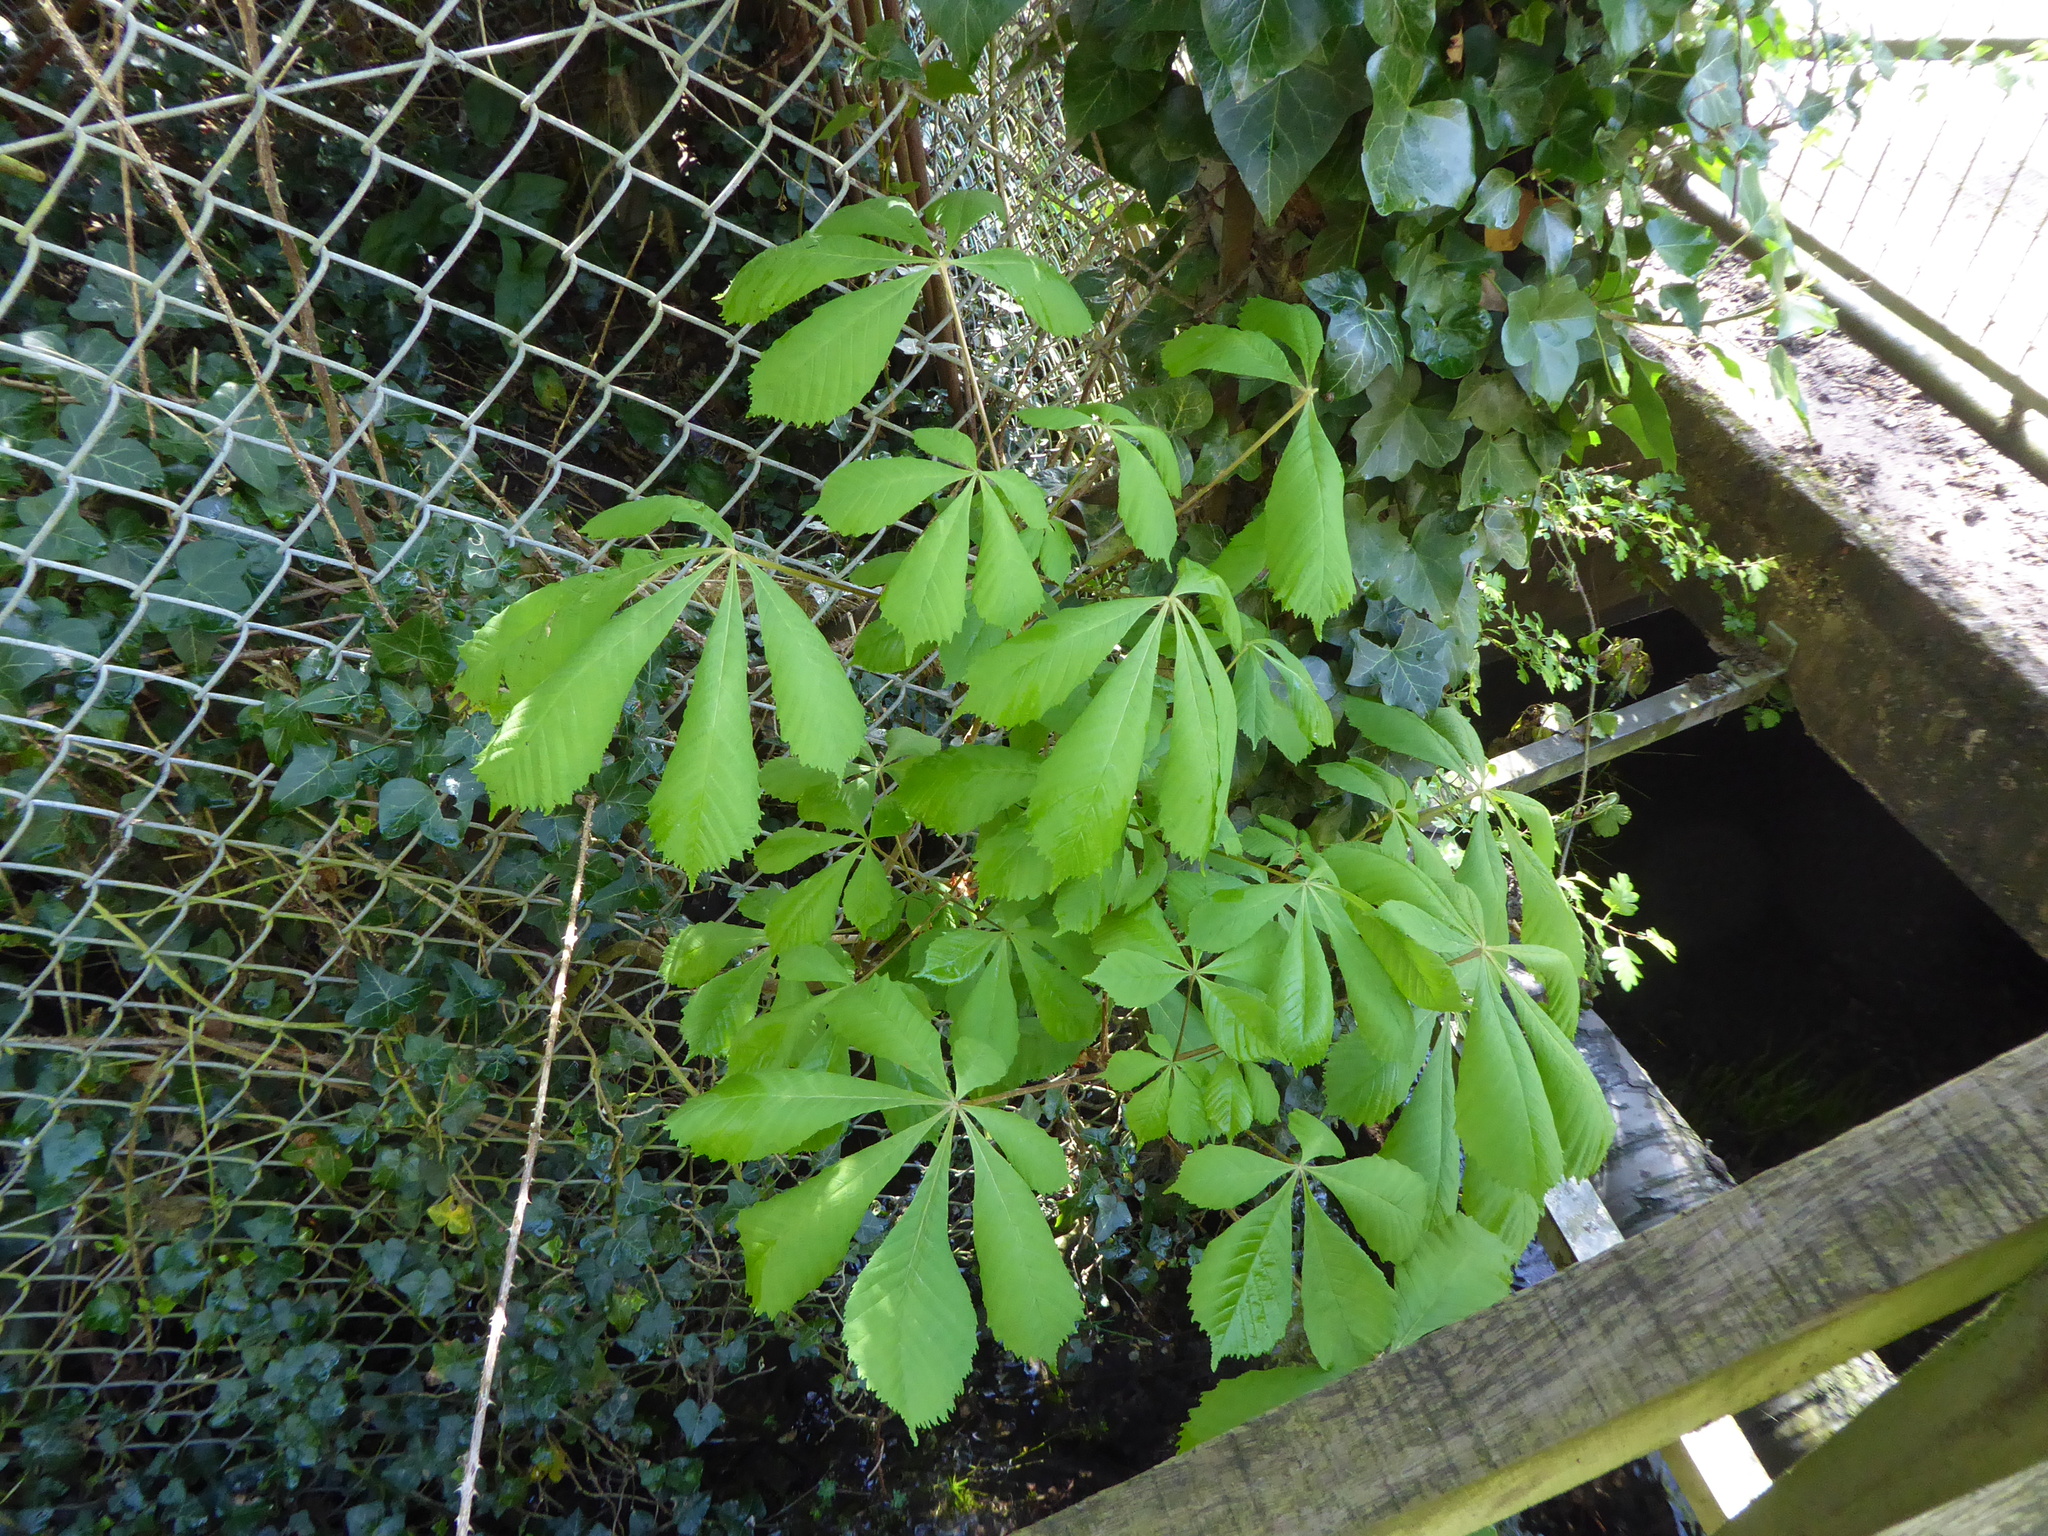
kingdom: Plantae
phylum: Tracheophyta
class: Magnoliopsida
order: Sapindales
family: Sapindaceae
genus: Aesculus
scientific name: Aesculus hippocastanum
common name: Horse-chestnut
